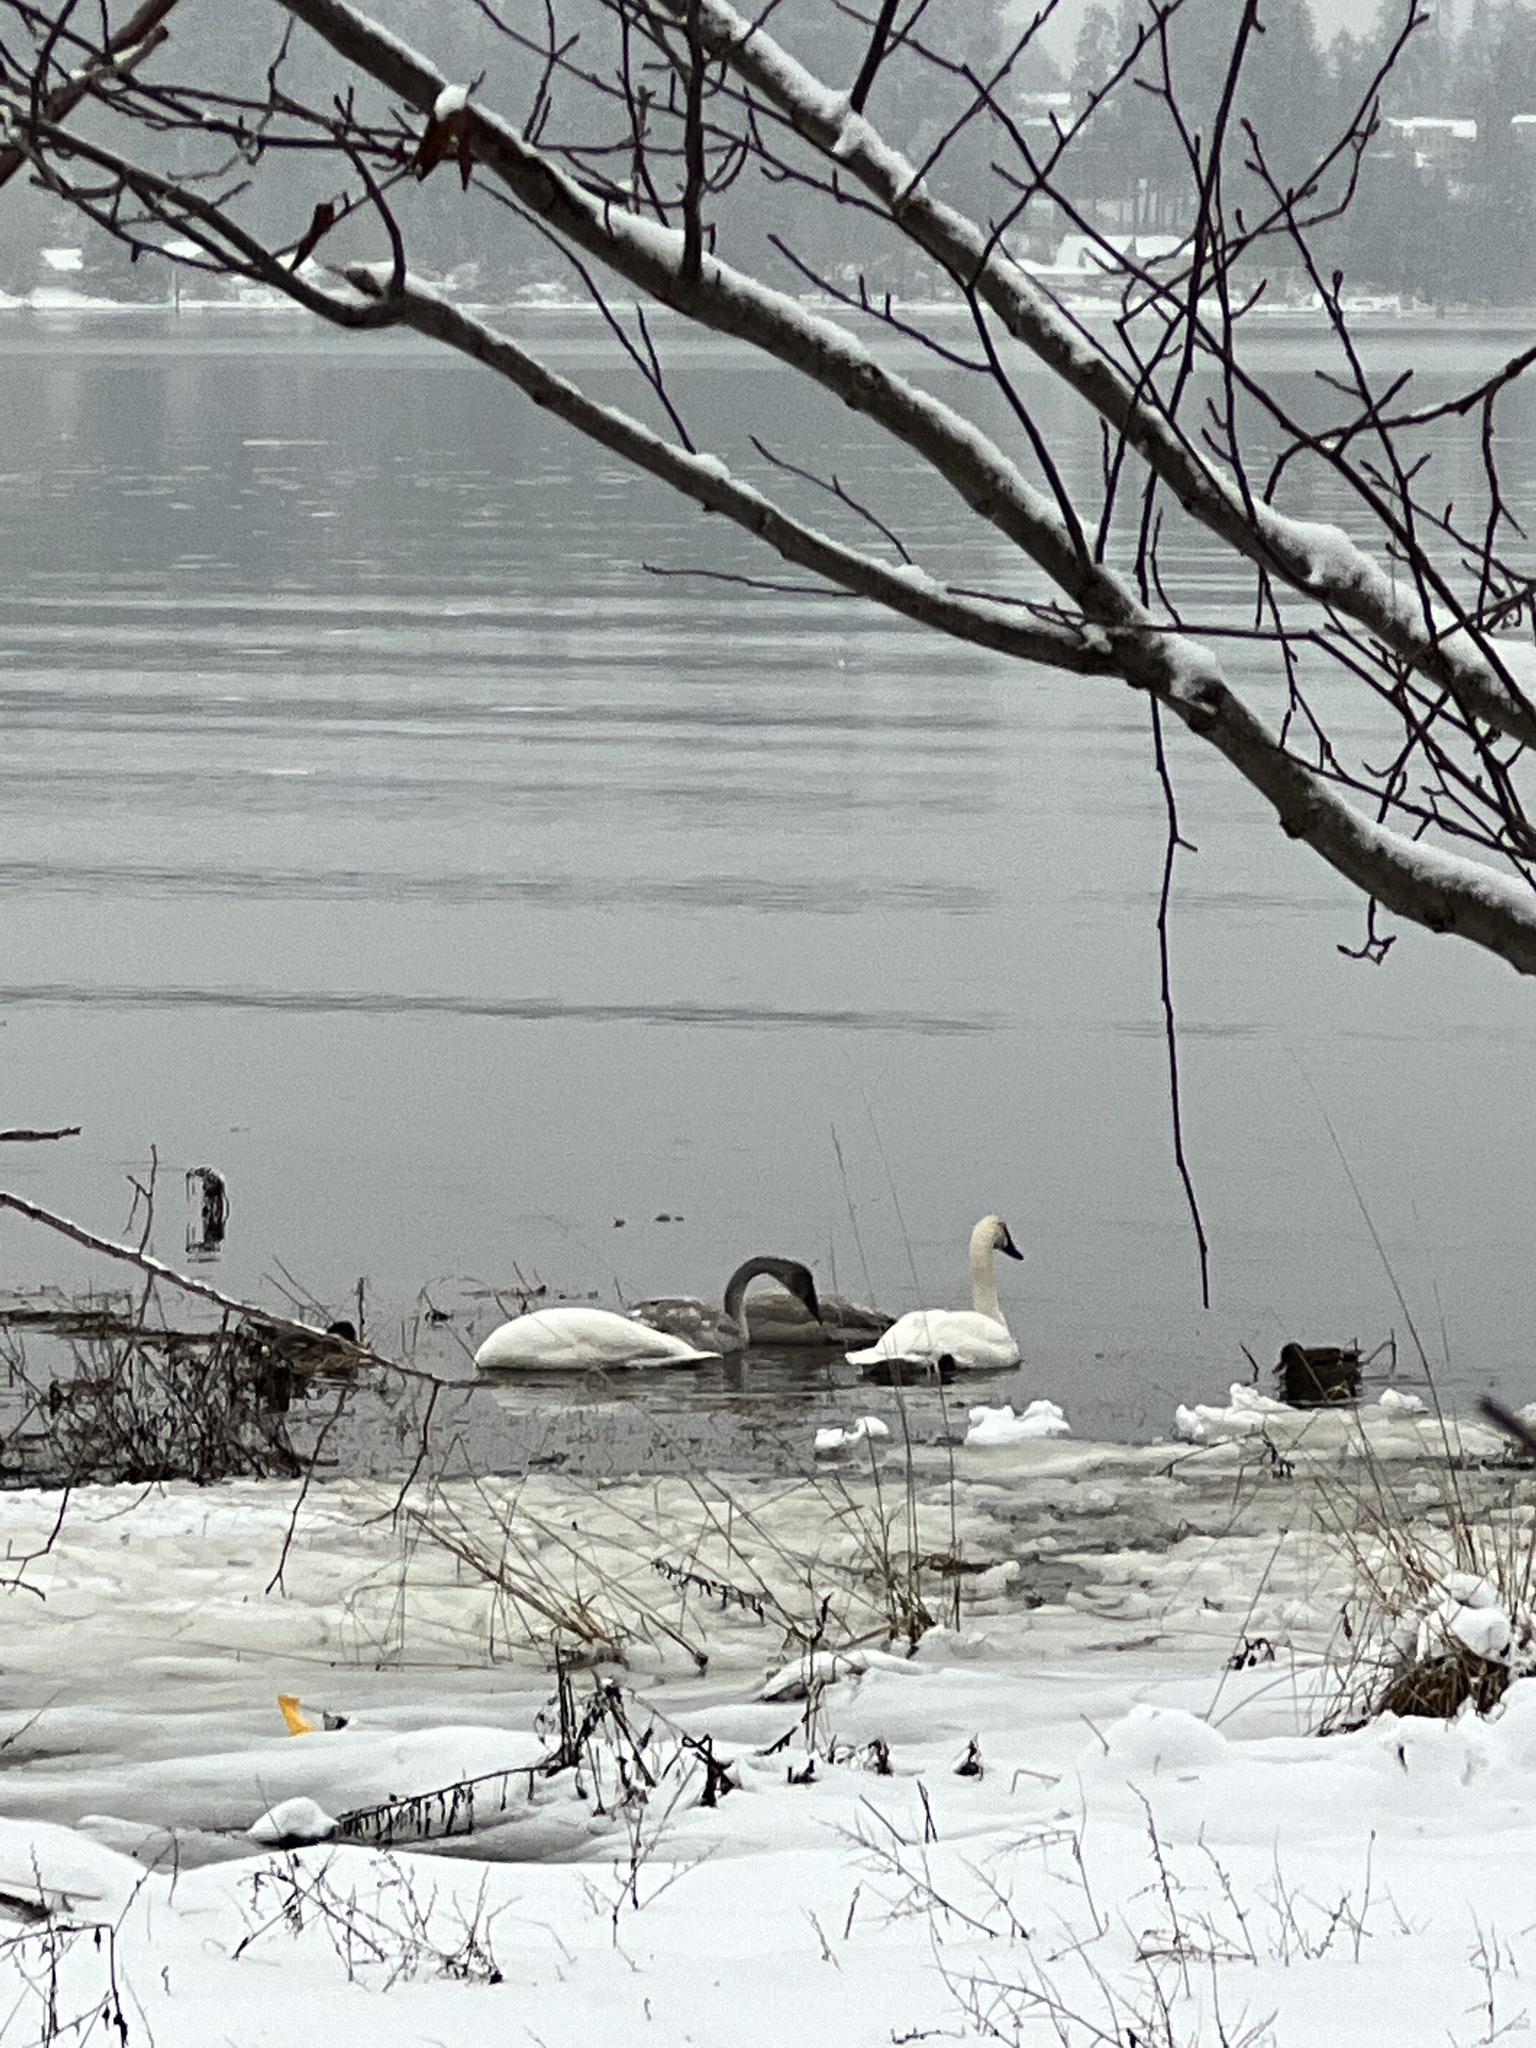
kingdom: Animalia
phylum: Chordata
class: Aves
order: Anseriformes
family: Anatidae
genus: Cygnus
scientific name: Cygnus buccinator
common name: Trumpeter swan
